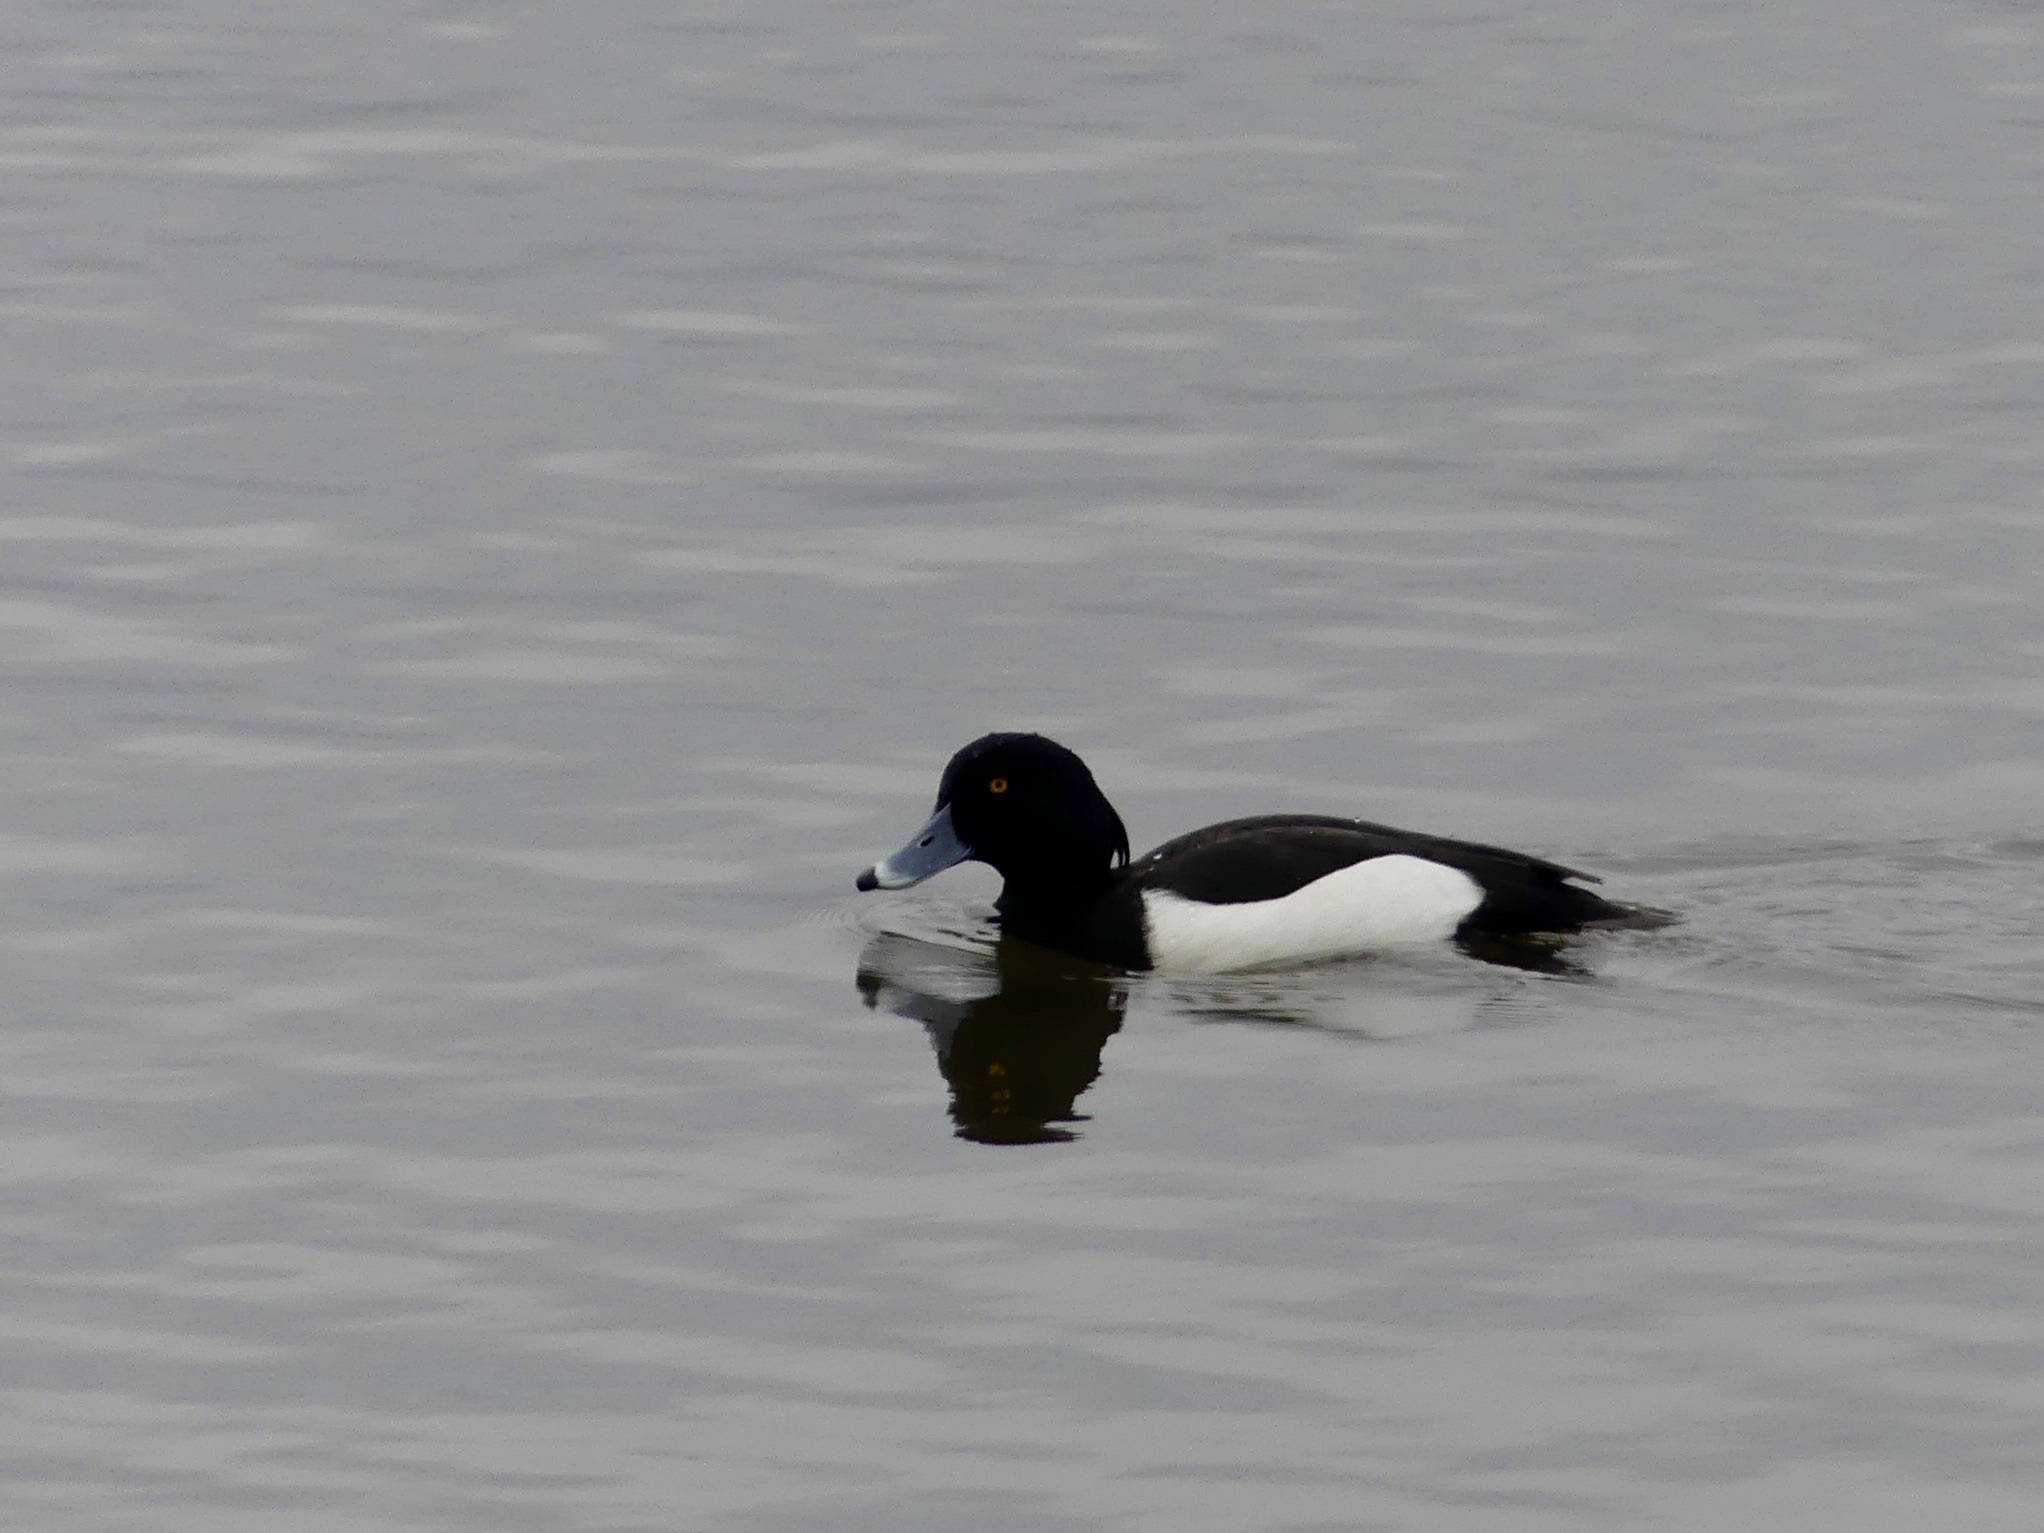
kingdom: Animalia
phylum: Chordata
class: Aves
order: Anseriformes
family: Anatidae
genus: Aythya
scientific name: Aythya fuligula
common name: Tufted duck
